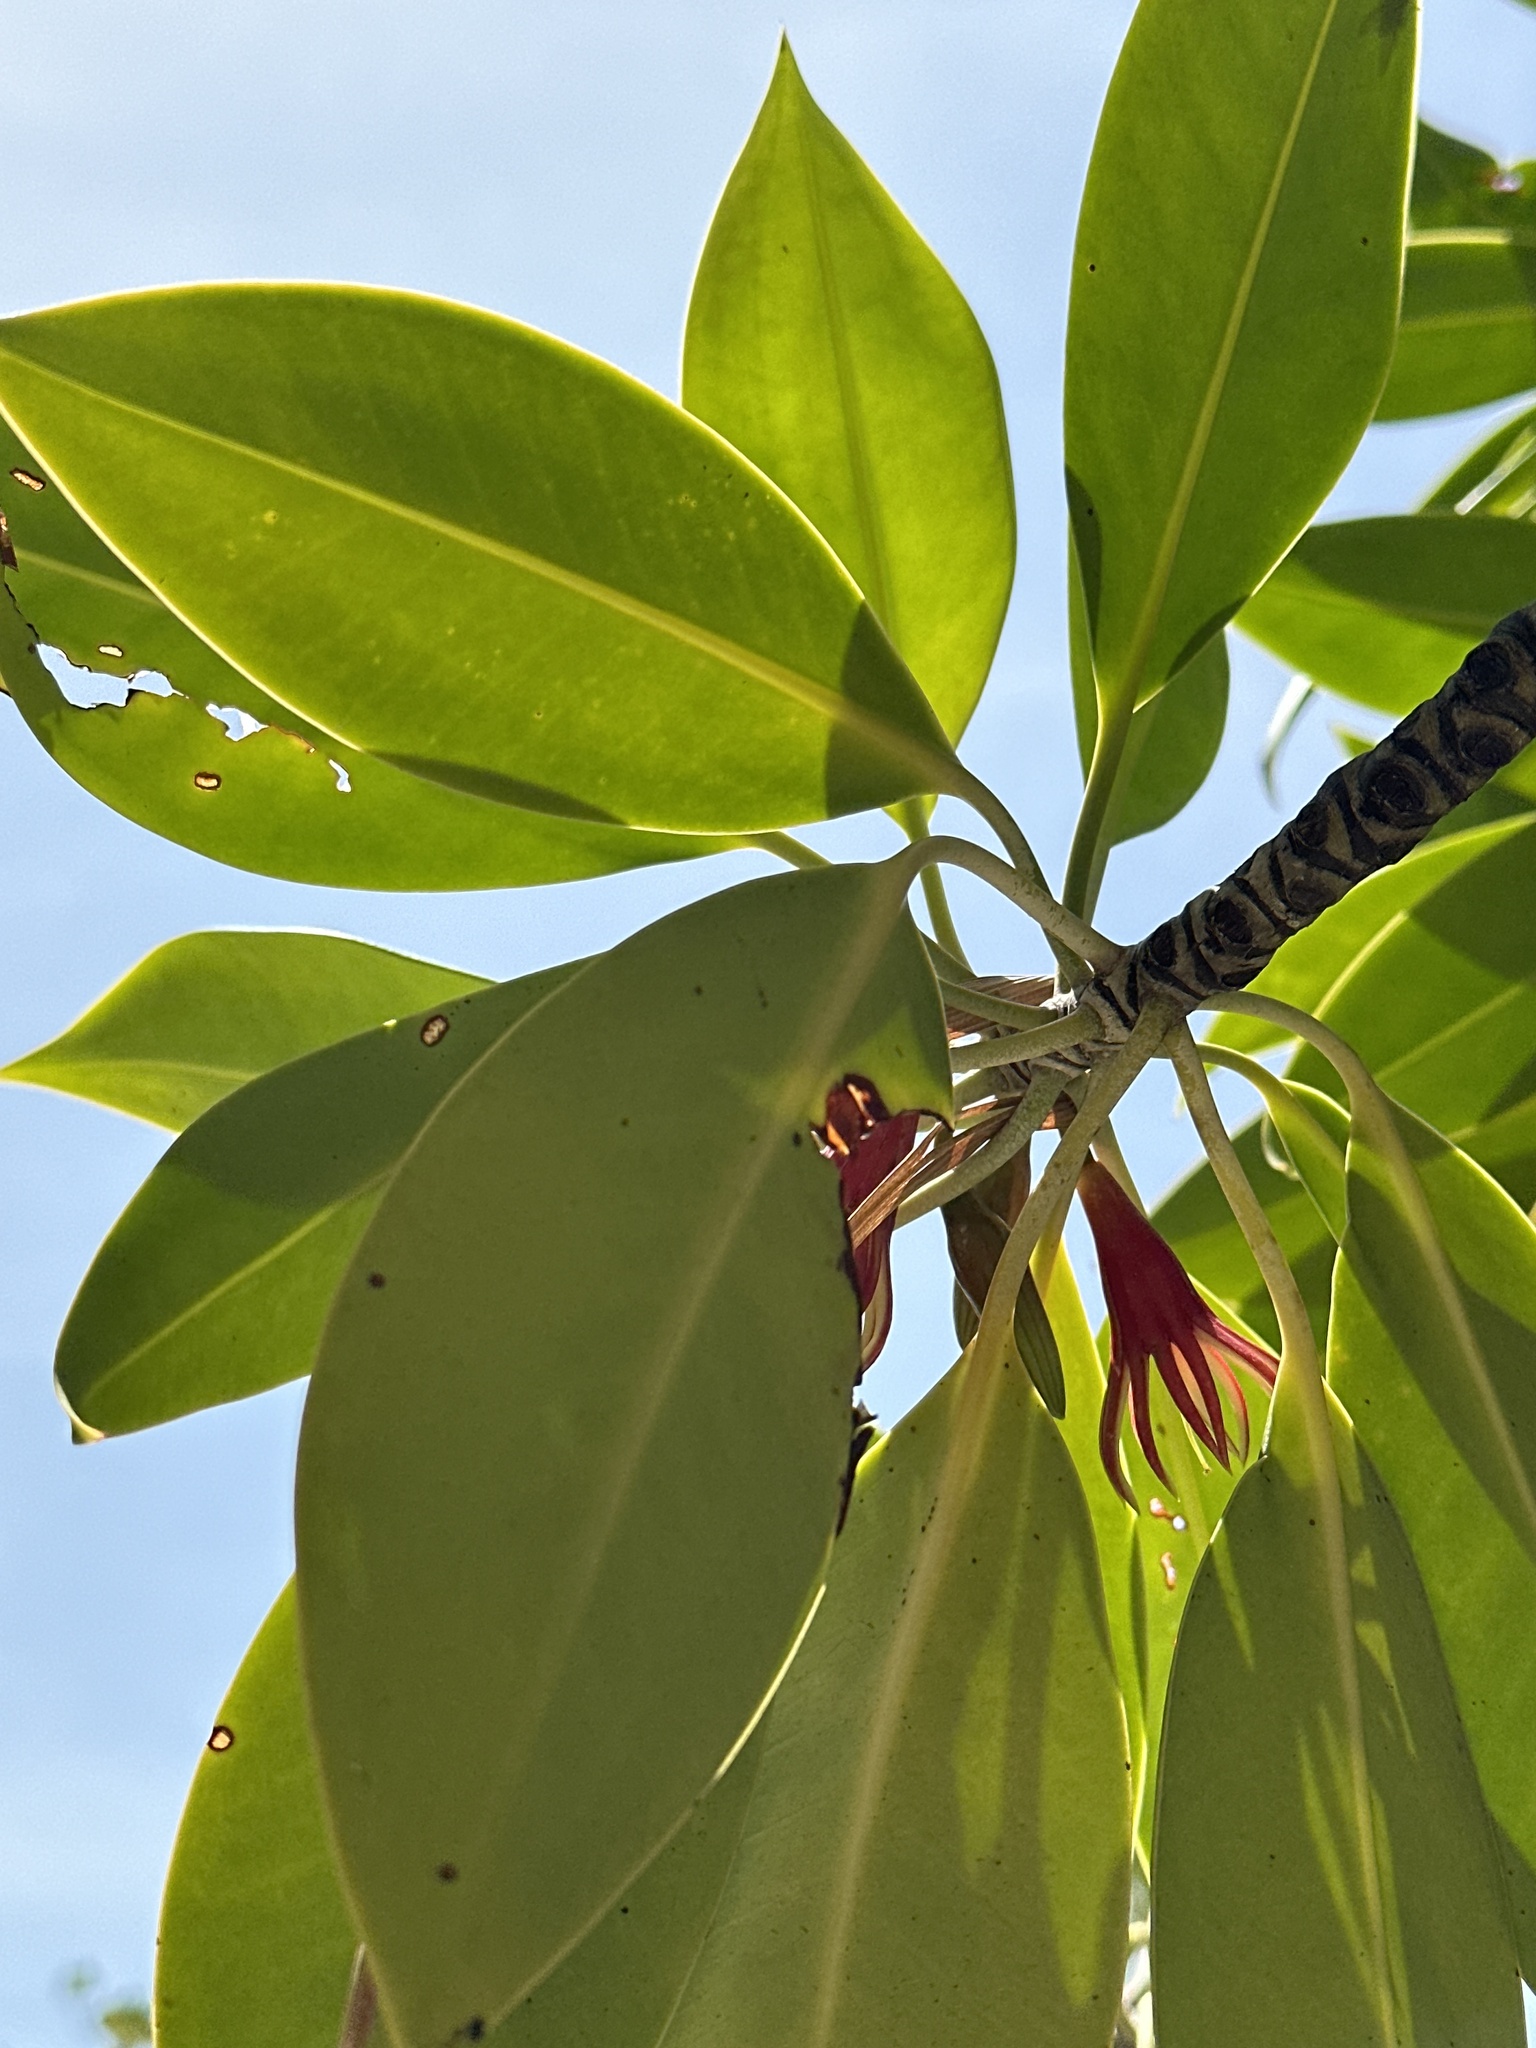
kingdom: Plantae
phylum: Tracheophyta
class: Magnoliopsida
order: Malpighiales
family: Rhizophoraceae
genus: Bruguiera
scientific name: Bruguiera gymnorhiza
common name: Oriental mangrove
